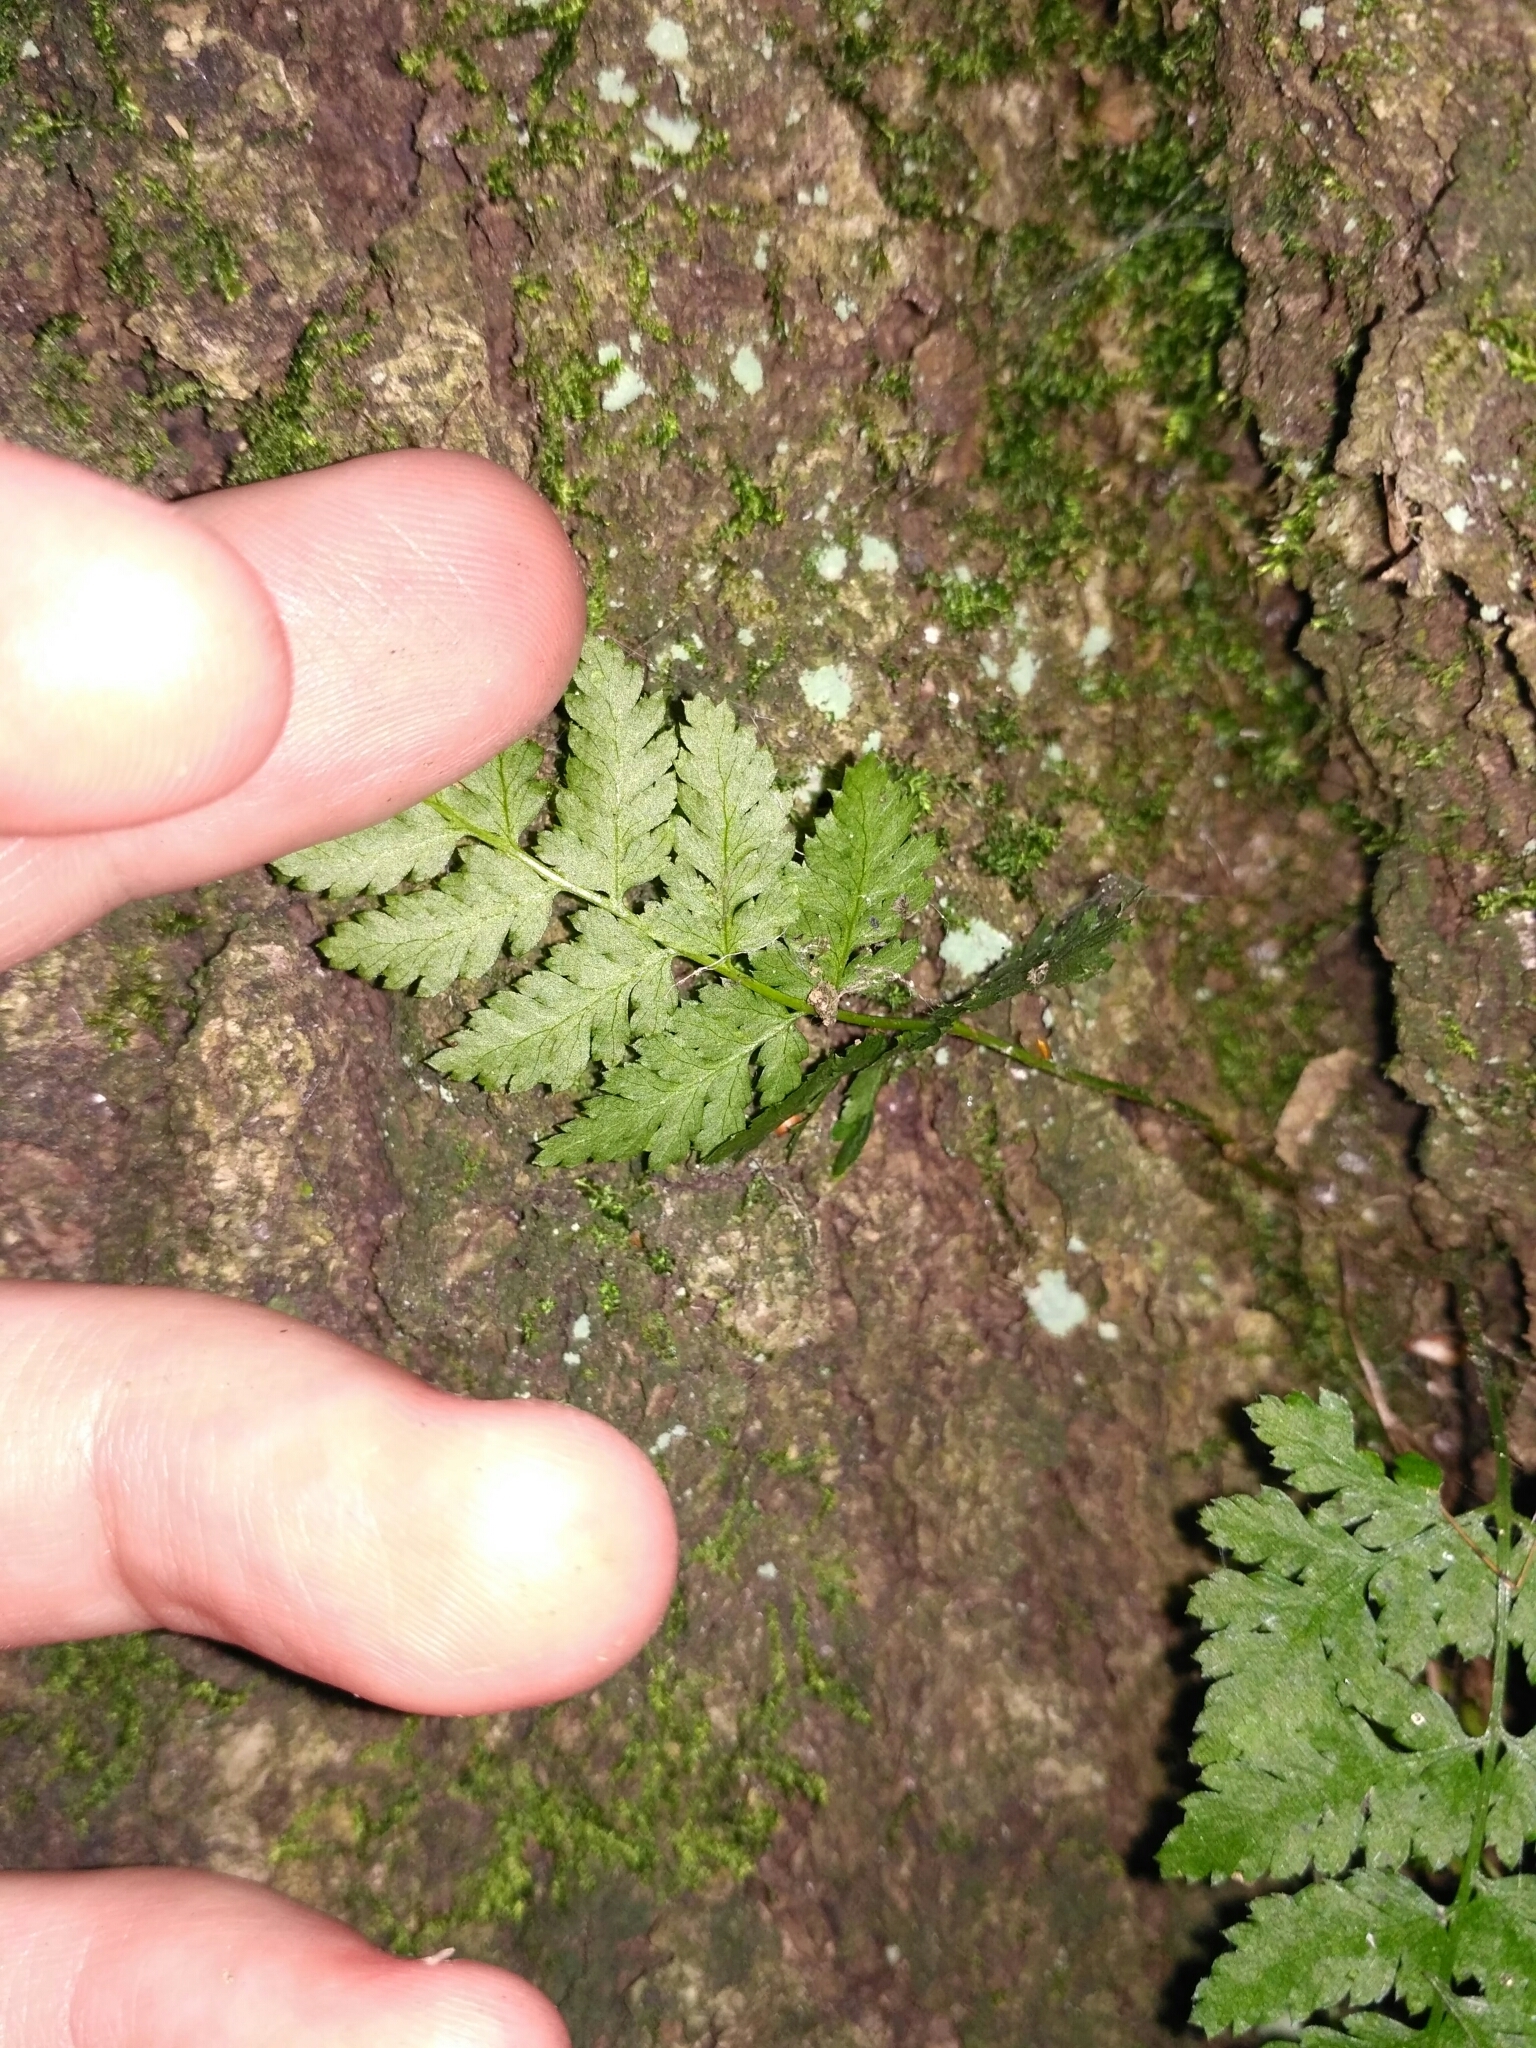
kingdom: Plantae
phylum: Tracheophyta
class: Polypodiopsida
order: Polypodiales
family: Cystopteridaceae
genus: Cystopteris
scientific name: Cystopteris fragilis
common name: Brittle bladder fern
